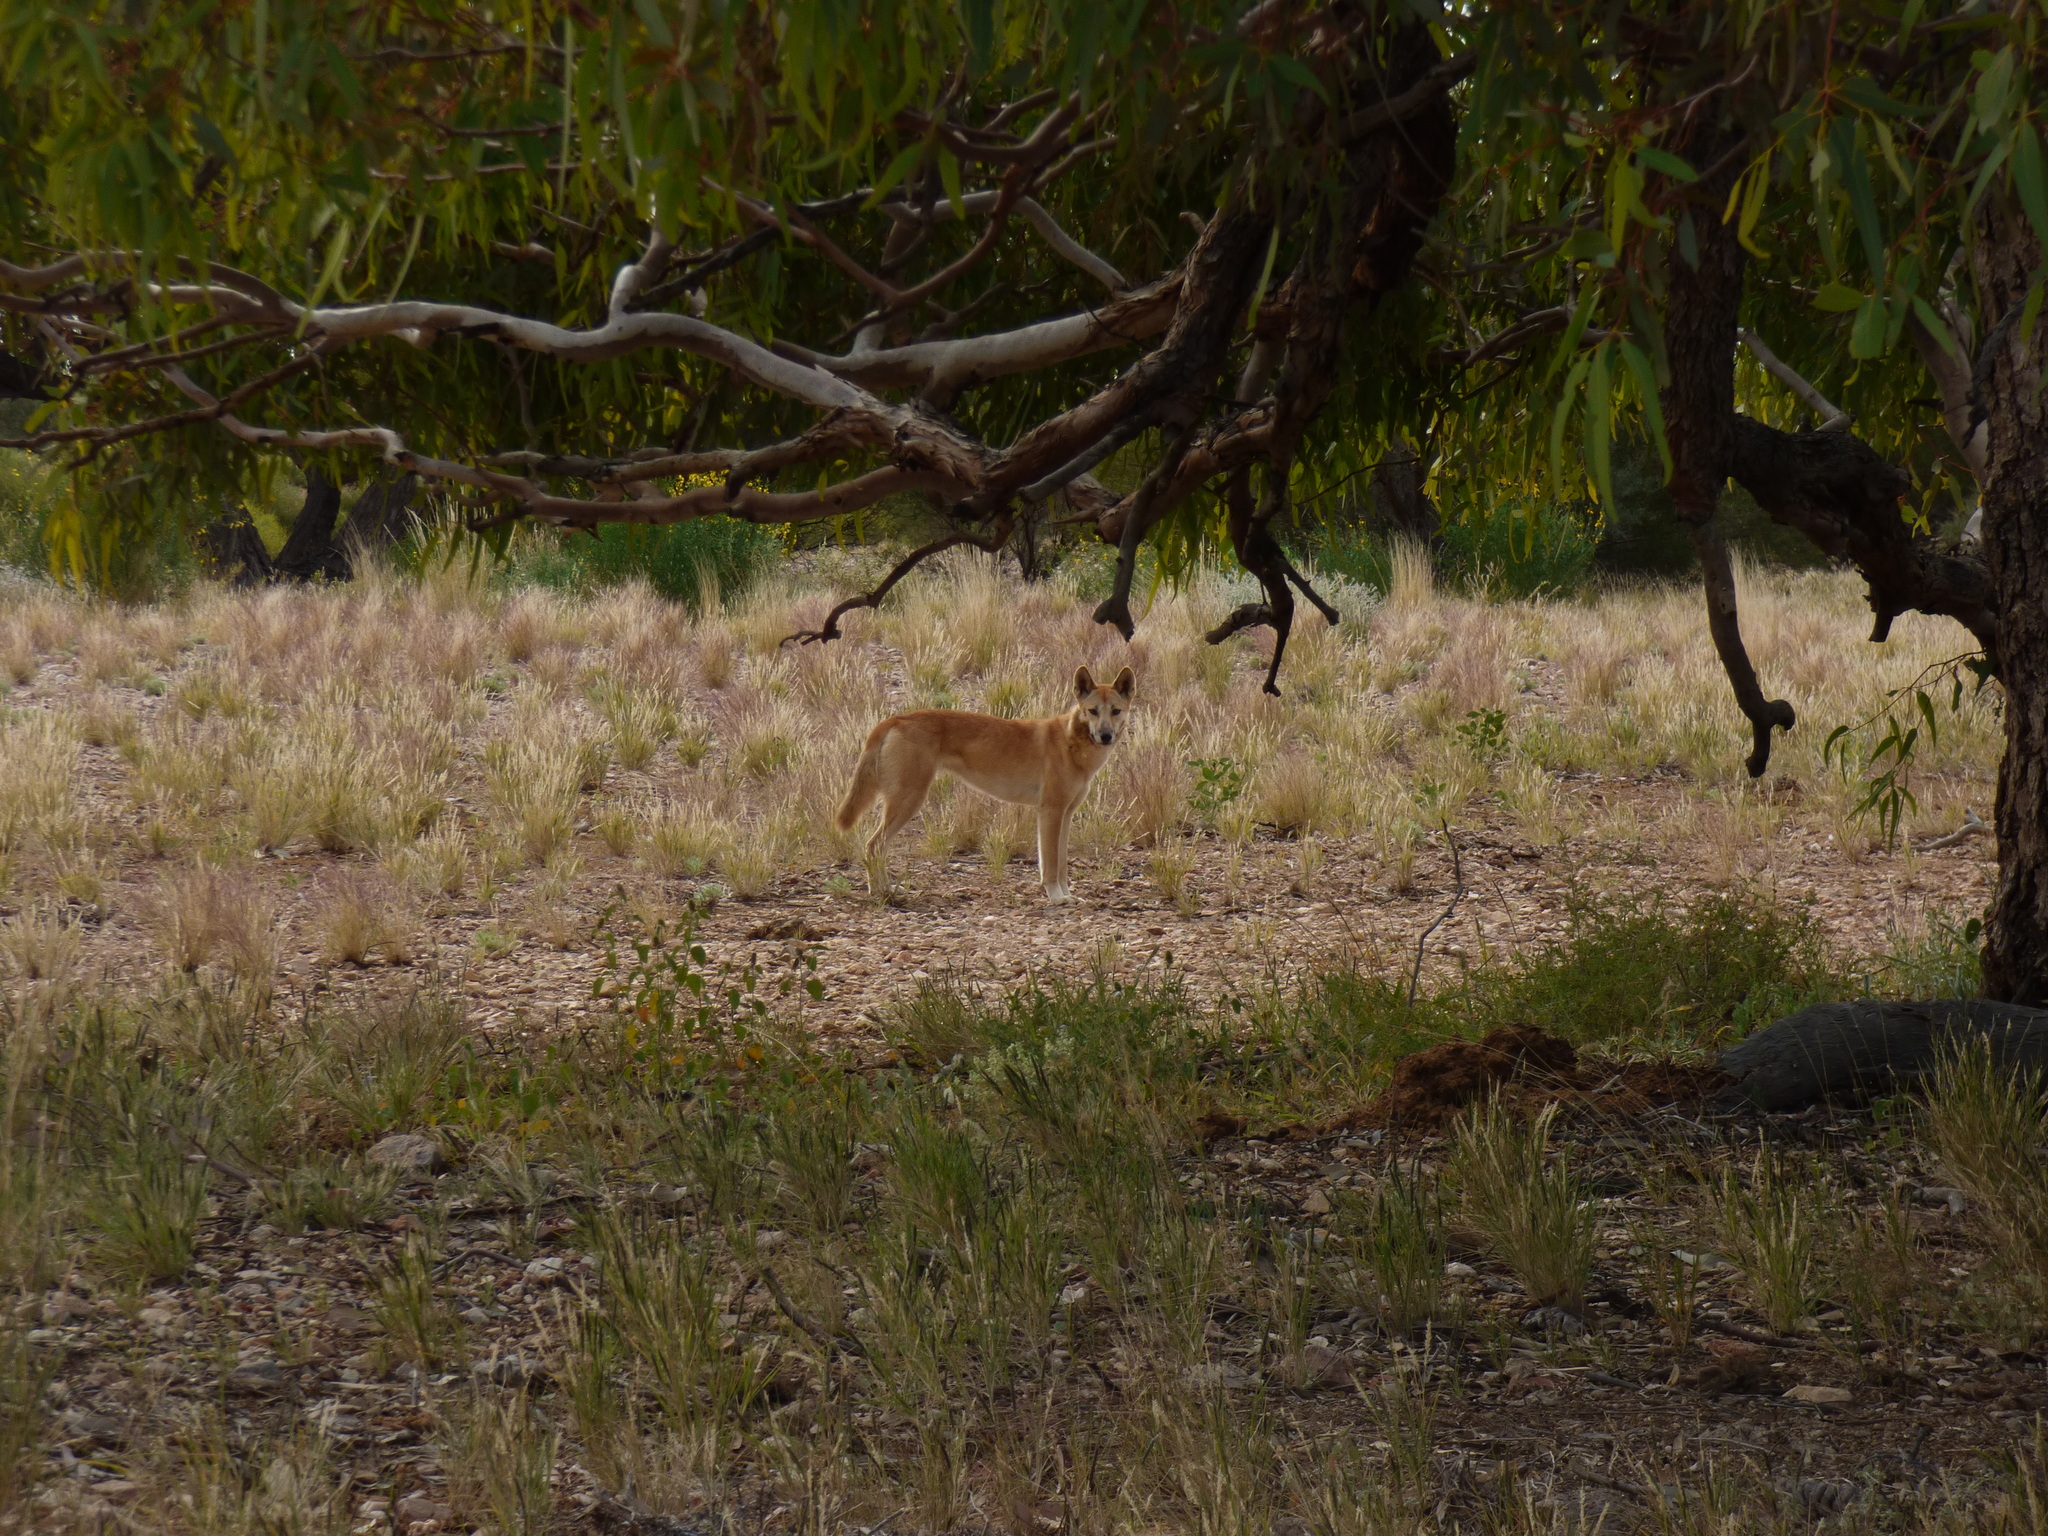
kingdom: Animalia
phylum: Chordata
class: Mammalia
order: Carnivora
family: Canidae
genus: Canis
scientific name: Canis lupus
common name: Gray wolf
